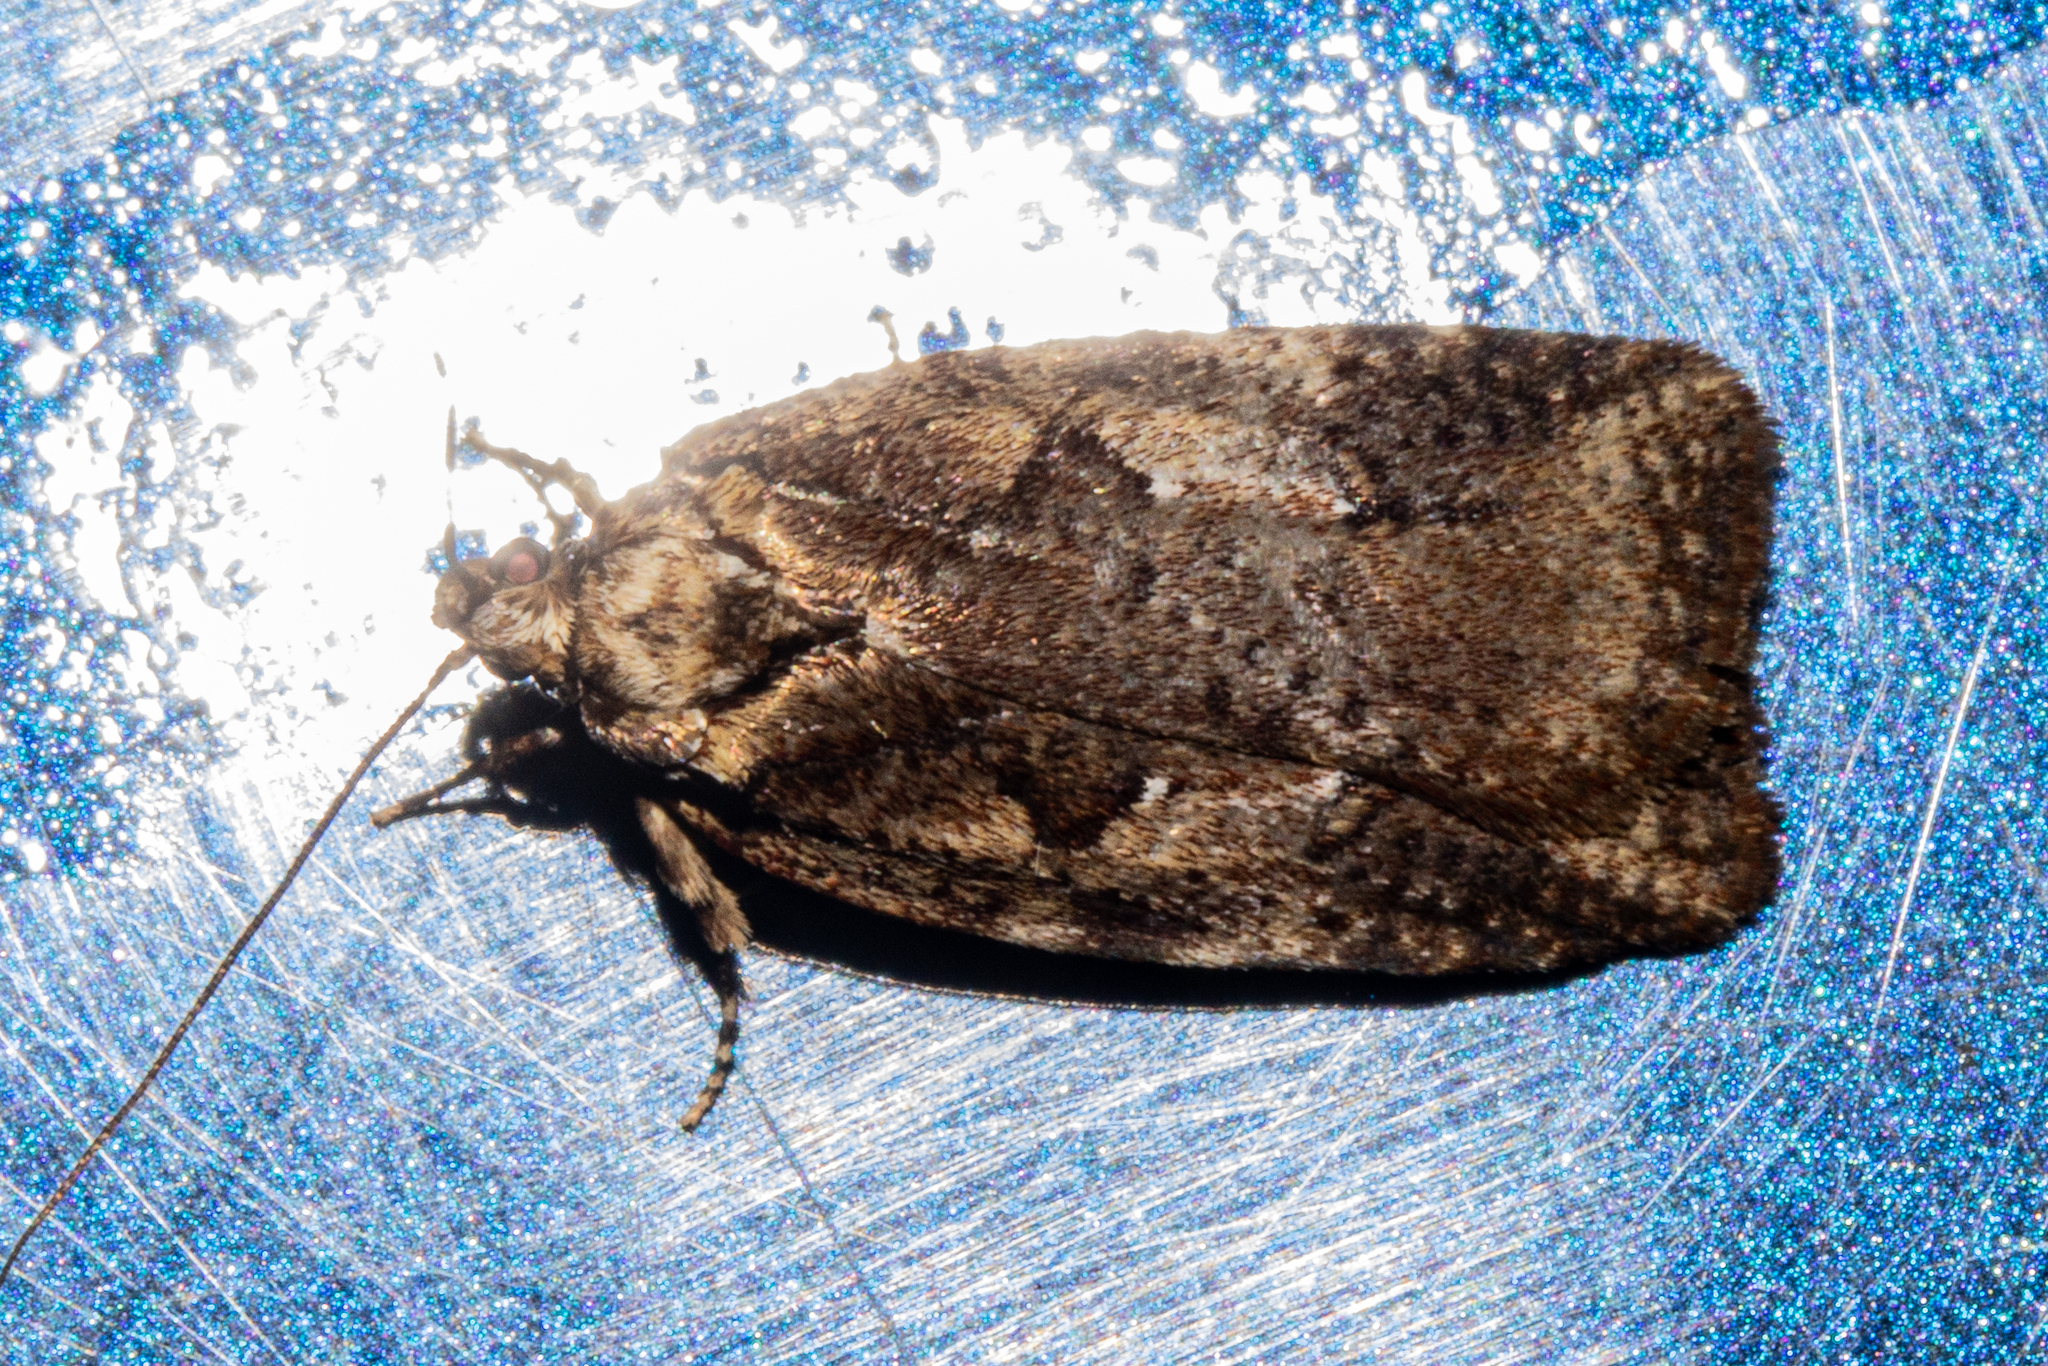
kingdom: Animalia
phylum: Arthropoda
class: Insecta
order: Lepidoptera
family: Oecophoridae
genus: Proteodes
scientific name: Proteodes profunda
